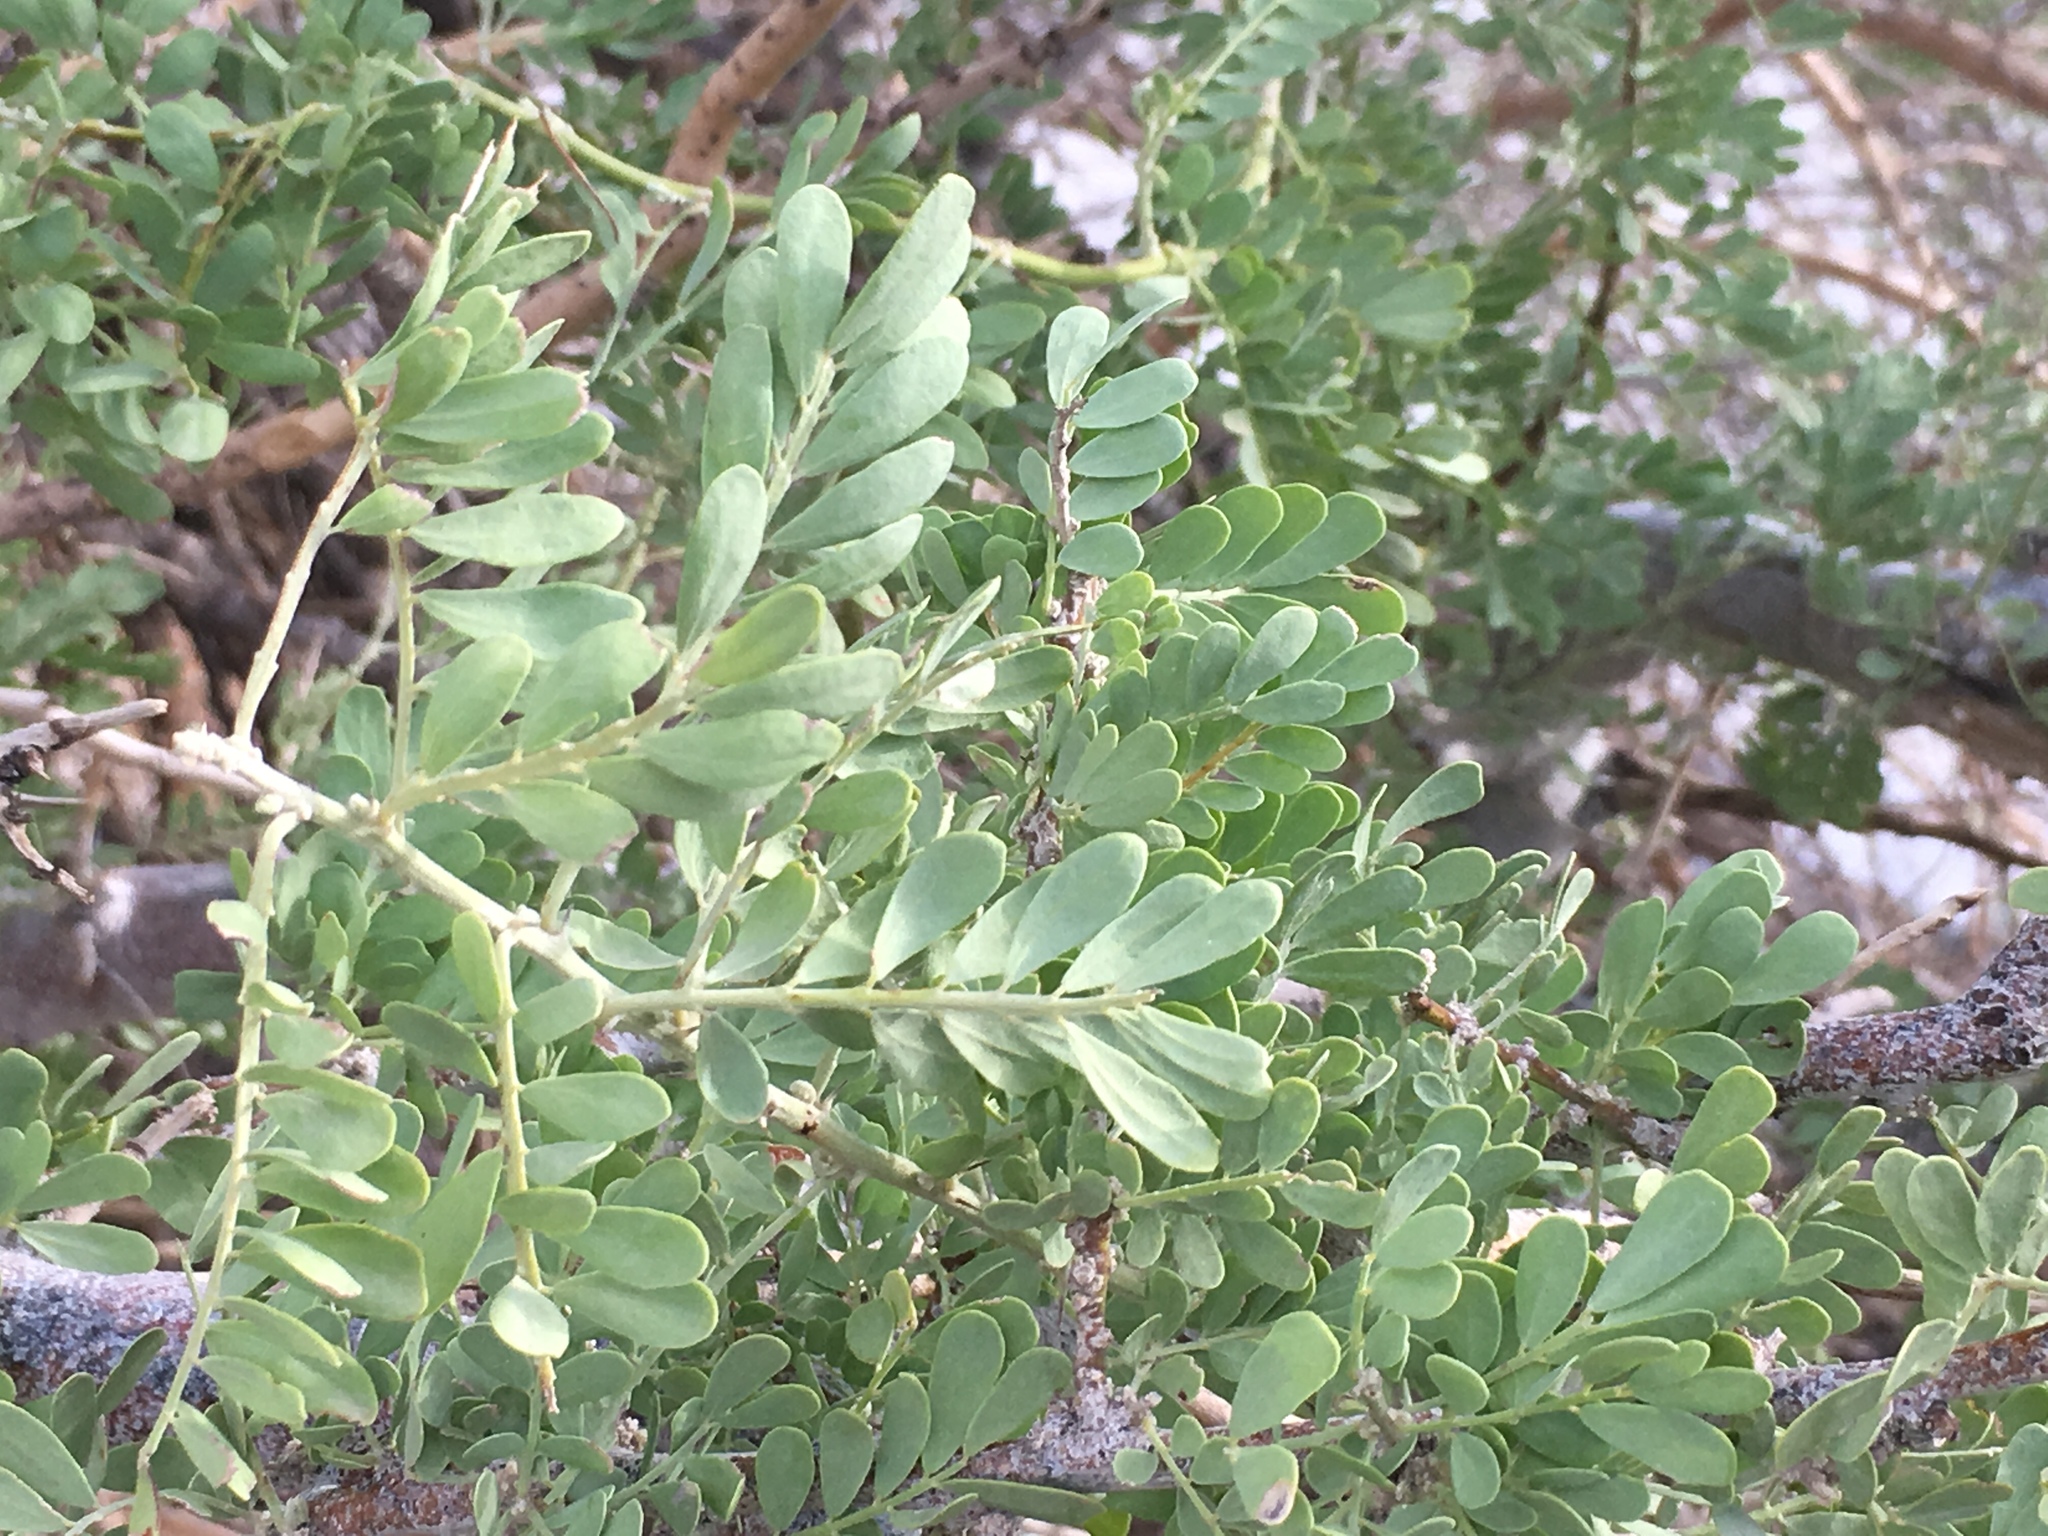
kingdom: Plantae
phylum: Tracheophyta
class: Magnoliopsida
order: Fabales
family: Fabaceae
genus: Olneya
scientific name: Olneya tesota
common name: Desert ironwood
